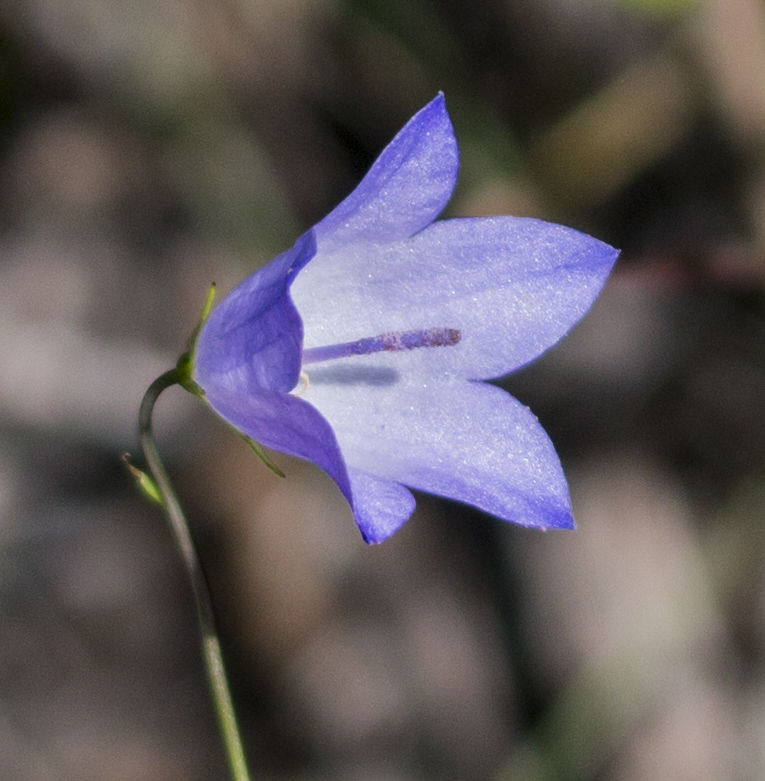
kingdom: Plantae
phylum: Tracheophyta
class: Magnoliopsida
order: Asterales
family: Campanulaceae
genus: Campanula
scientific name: Campanula intercedens
